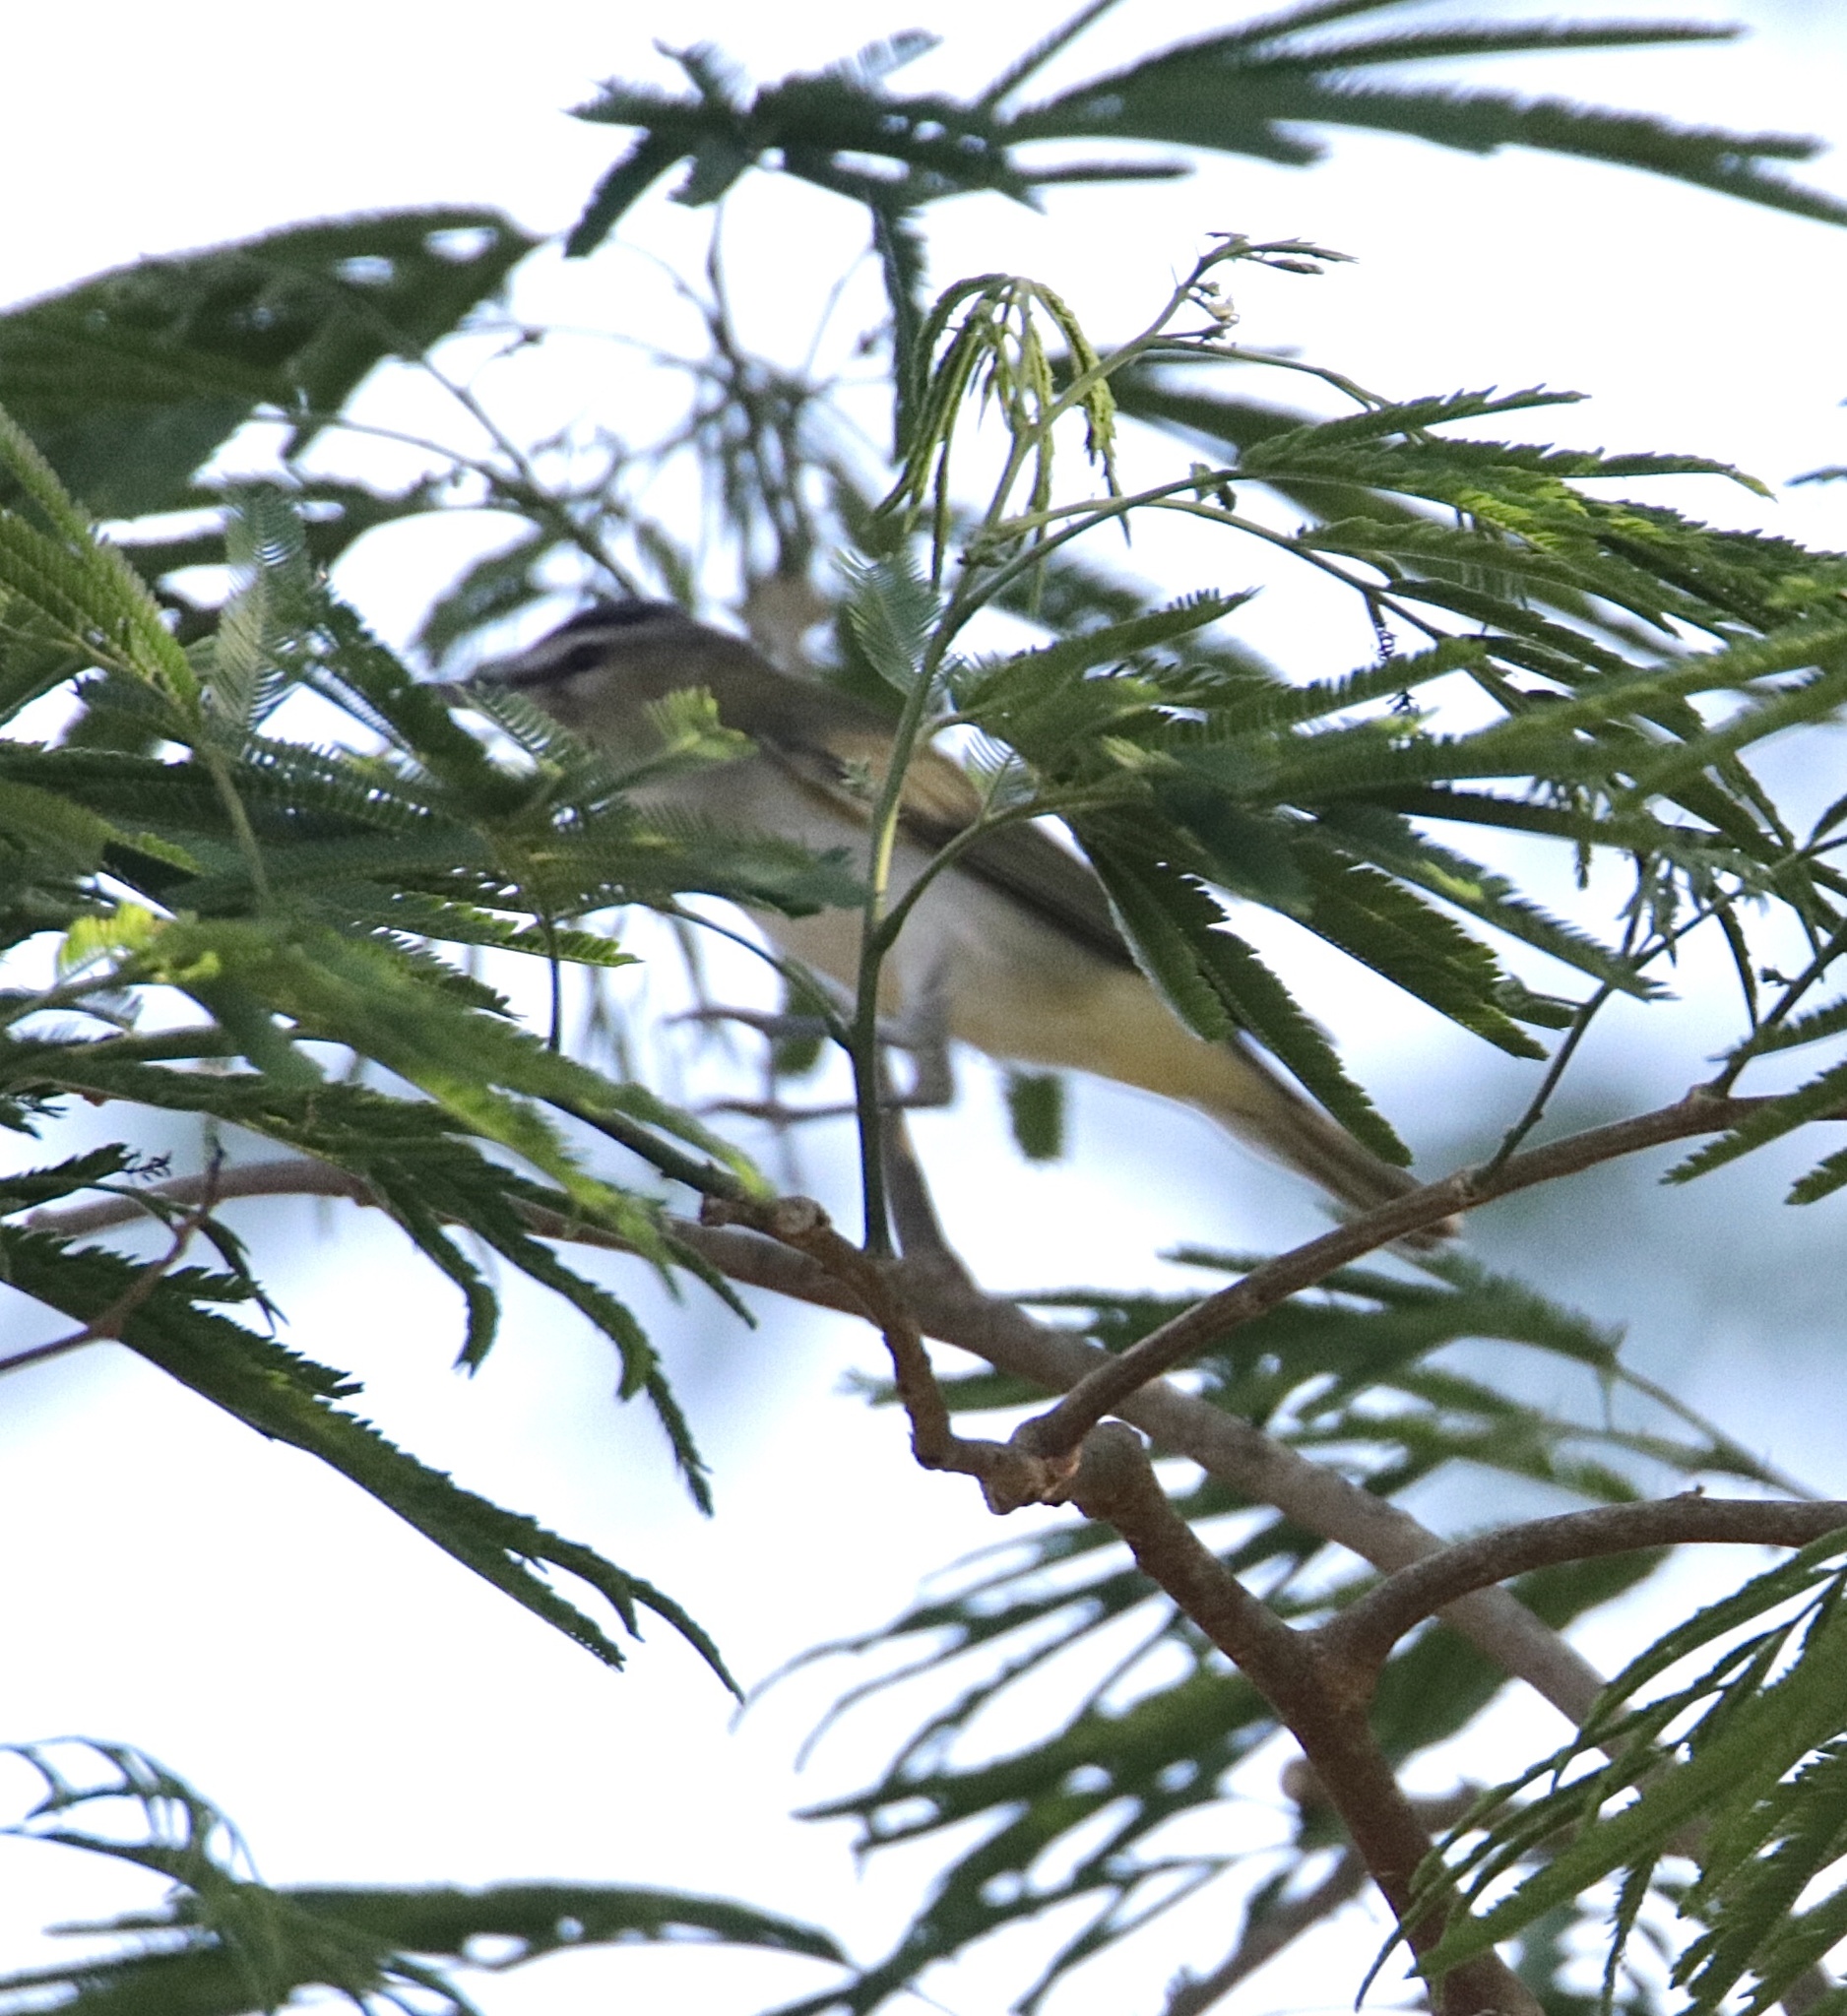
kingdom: Animalia
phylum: Chordata
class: Aves
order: Passeriformes
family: Vireonidae
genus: Vireo
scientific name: Vireo olivaceus
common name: Red-eyed vireo
